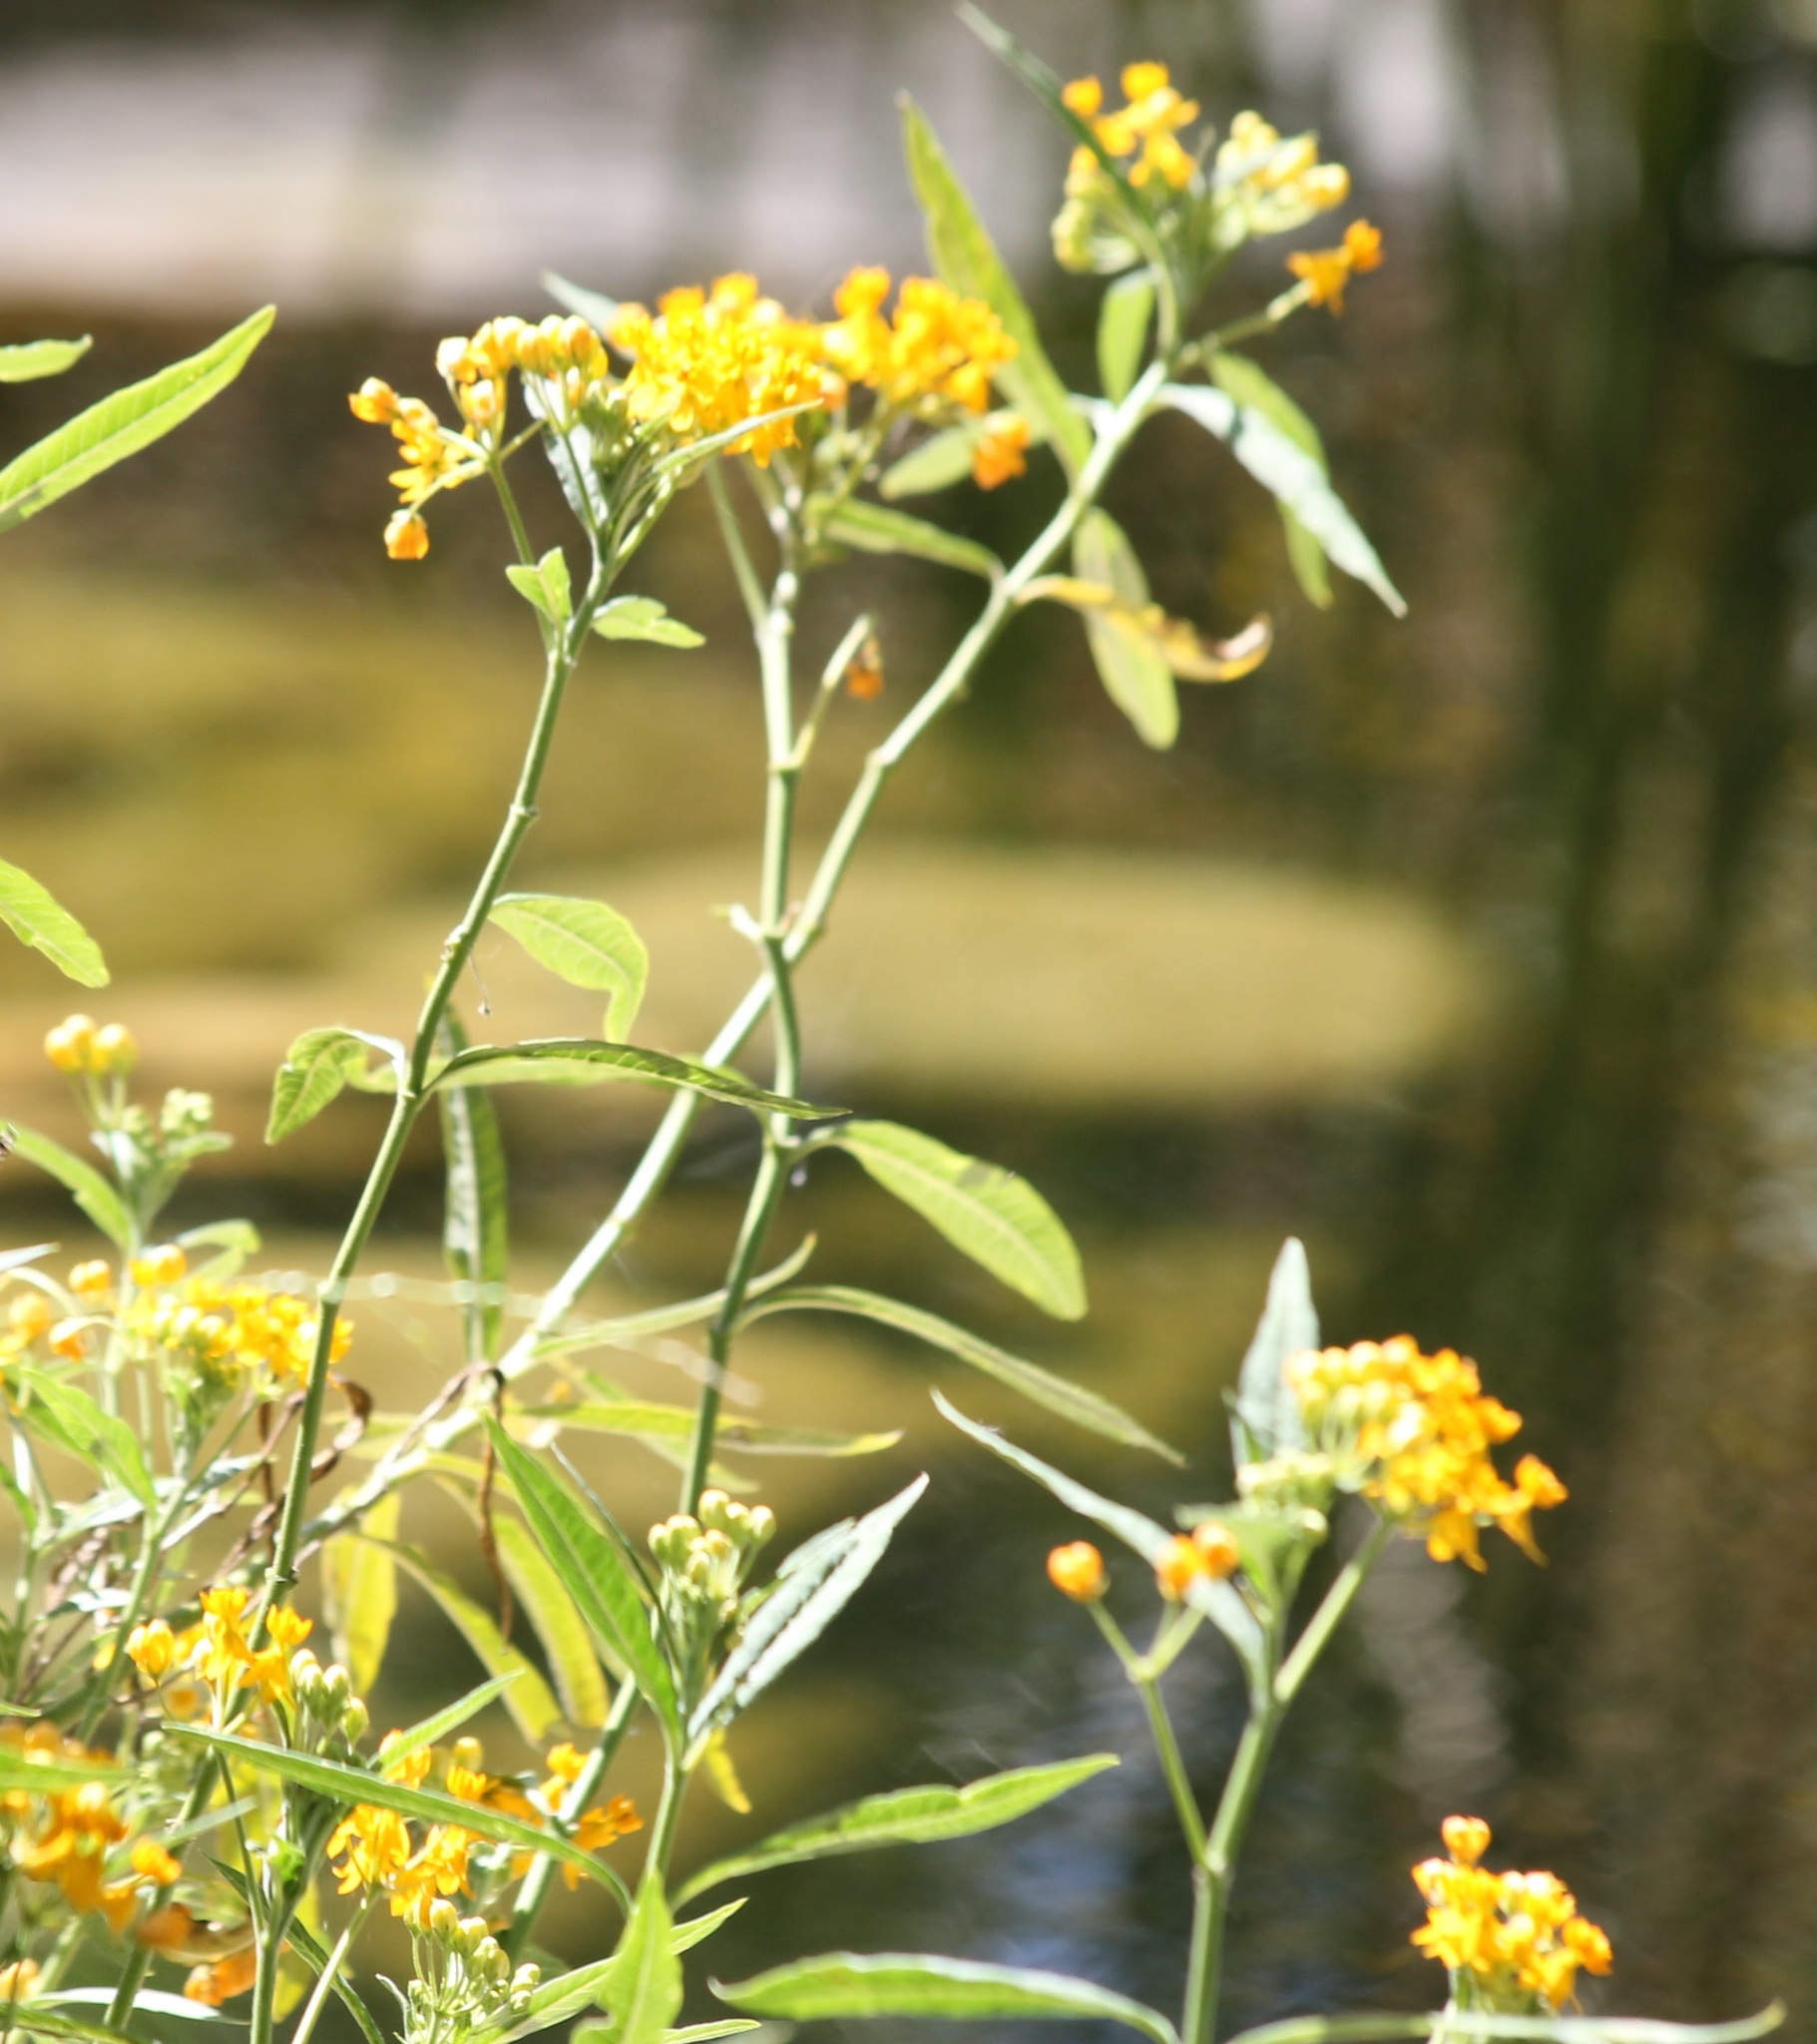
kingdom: Plantae
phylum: Tracheophyta
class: Magnoliopsida
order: Gentianales
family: Apocynaceae
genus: Asclepias
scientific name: Asclepias curassavica
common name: Bloodflower
